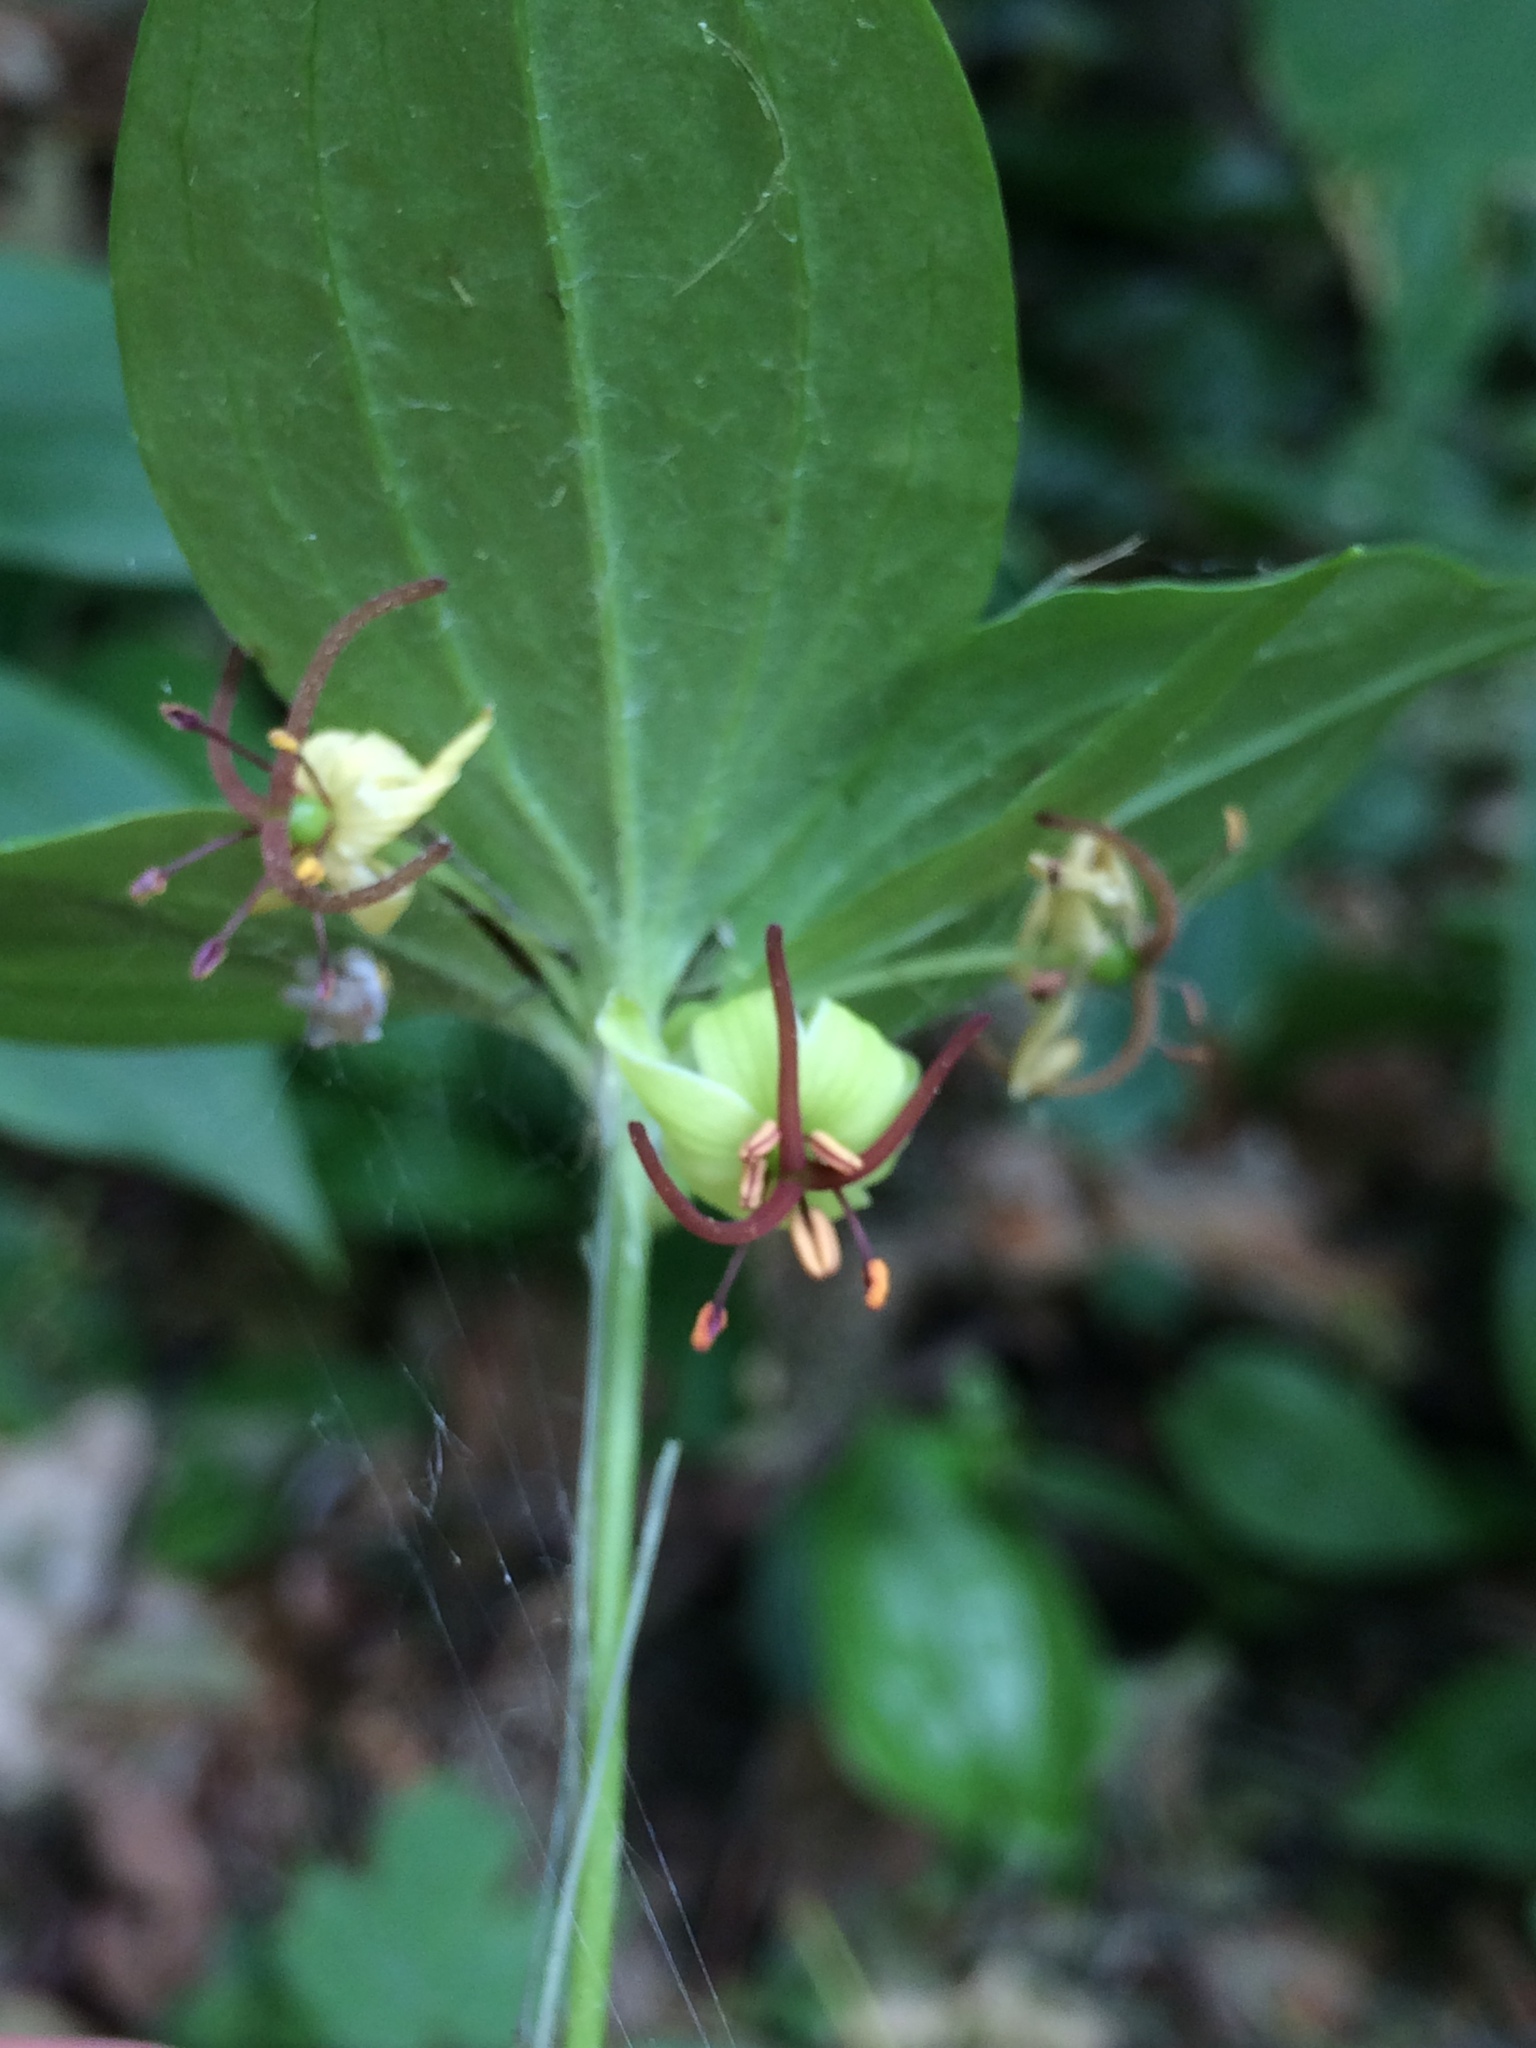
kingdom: Plantae
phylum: Tracheophyta
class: Liliopsida
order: Liliales
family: Liliaceae
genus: Medeola
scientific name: Medeola virginiana
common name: Indian cucumber-root
